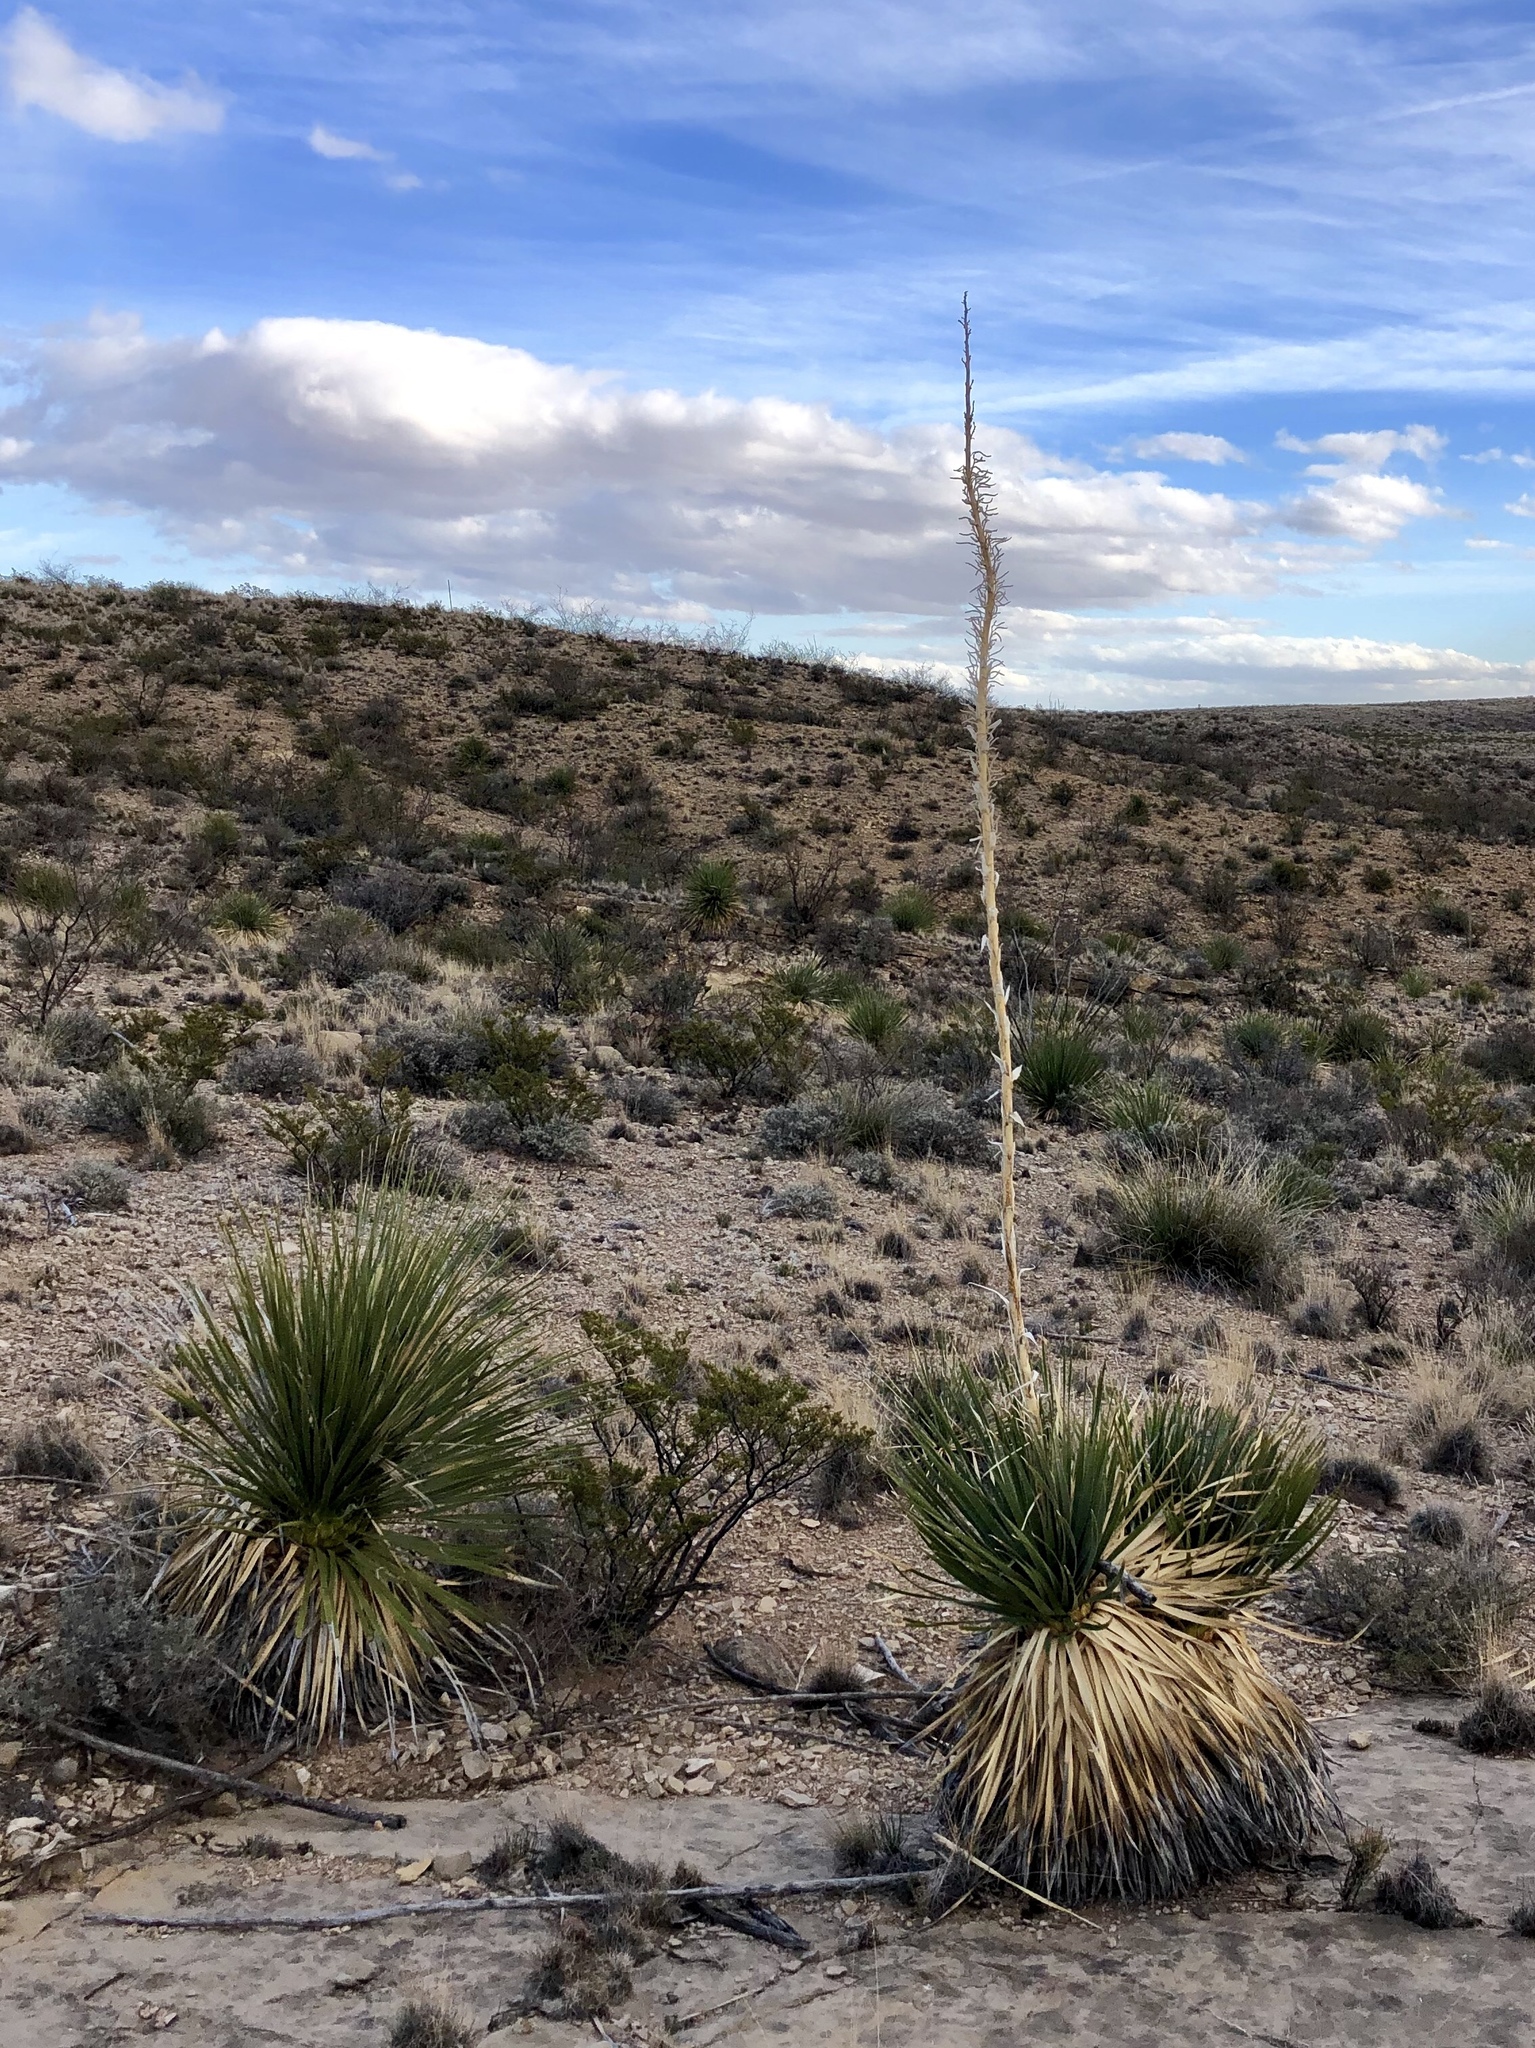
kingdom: Plantae
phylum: Tracheophyta
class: Liliopsida
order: Asparagales
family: Asparagaceae
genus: Dasylirion
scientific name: Dasylirion wheeleri
